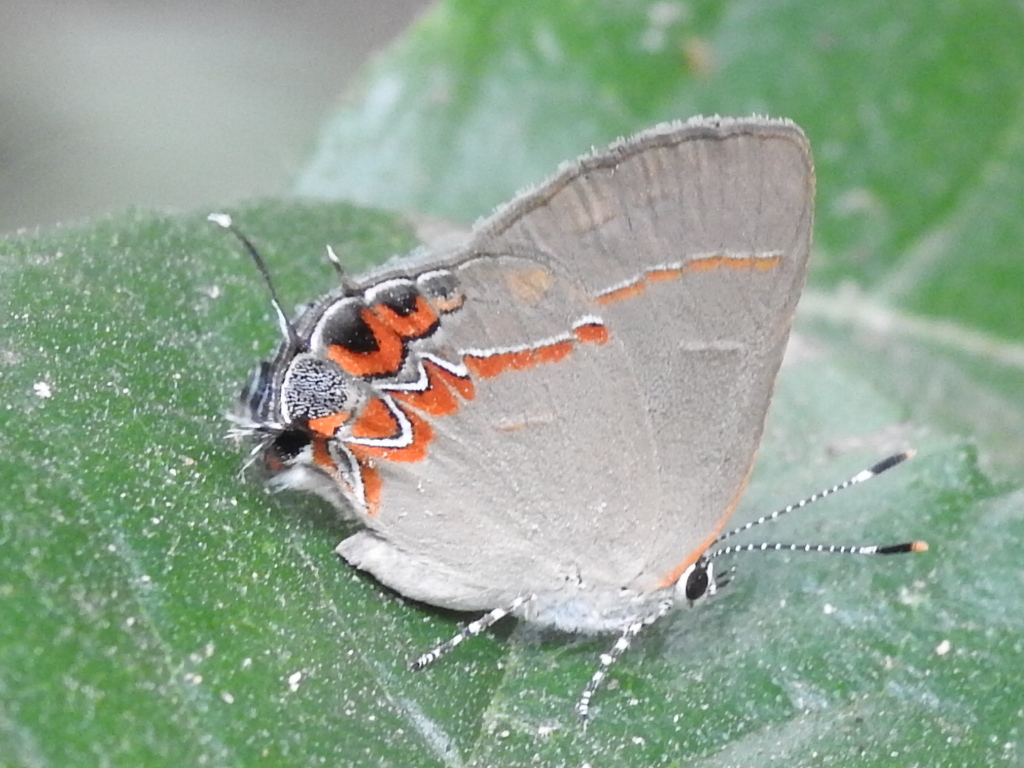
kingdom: Animalia
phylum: Arthropoda
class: Insecta
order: Lepidoptera
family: Lycaenidae
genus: Calycopis
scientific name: Calycopis isobeon
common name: Dusky-blue groundstreak
